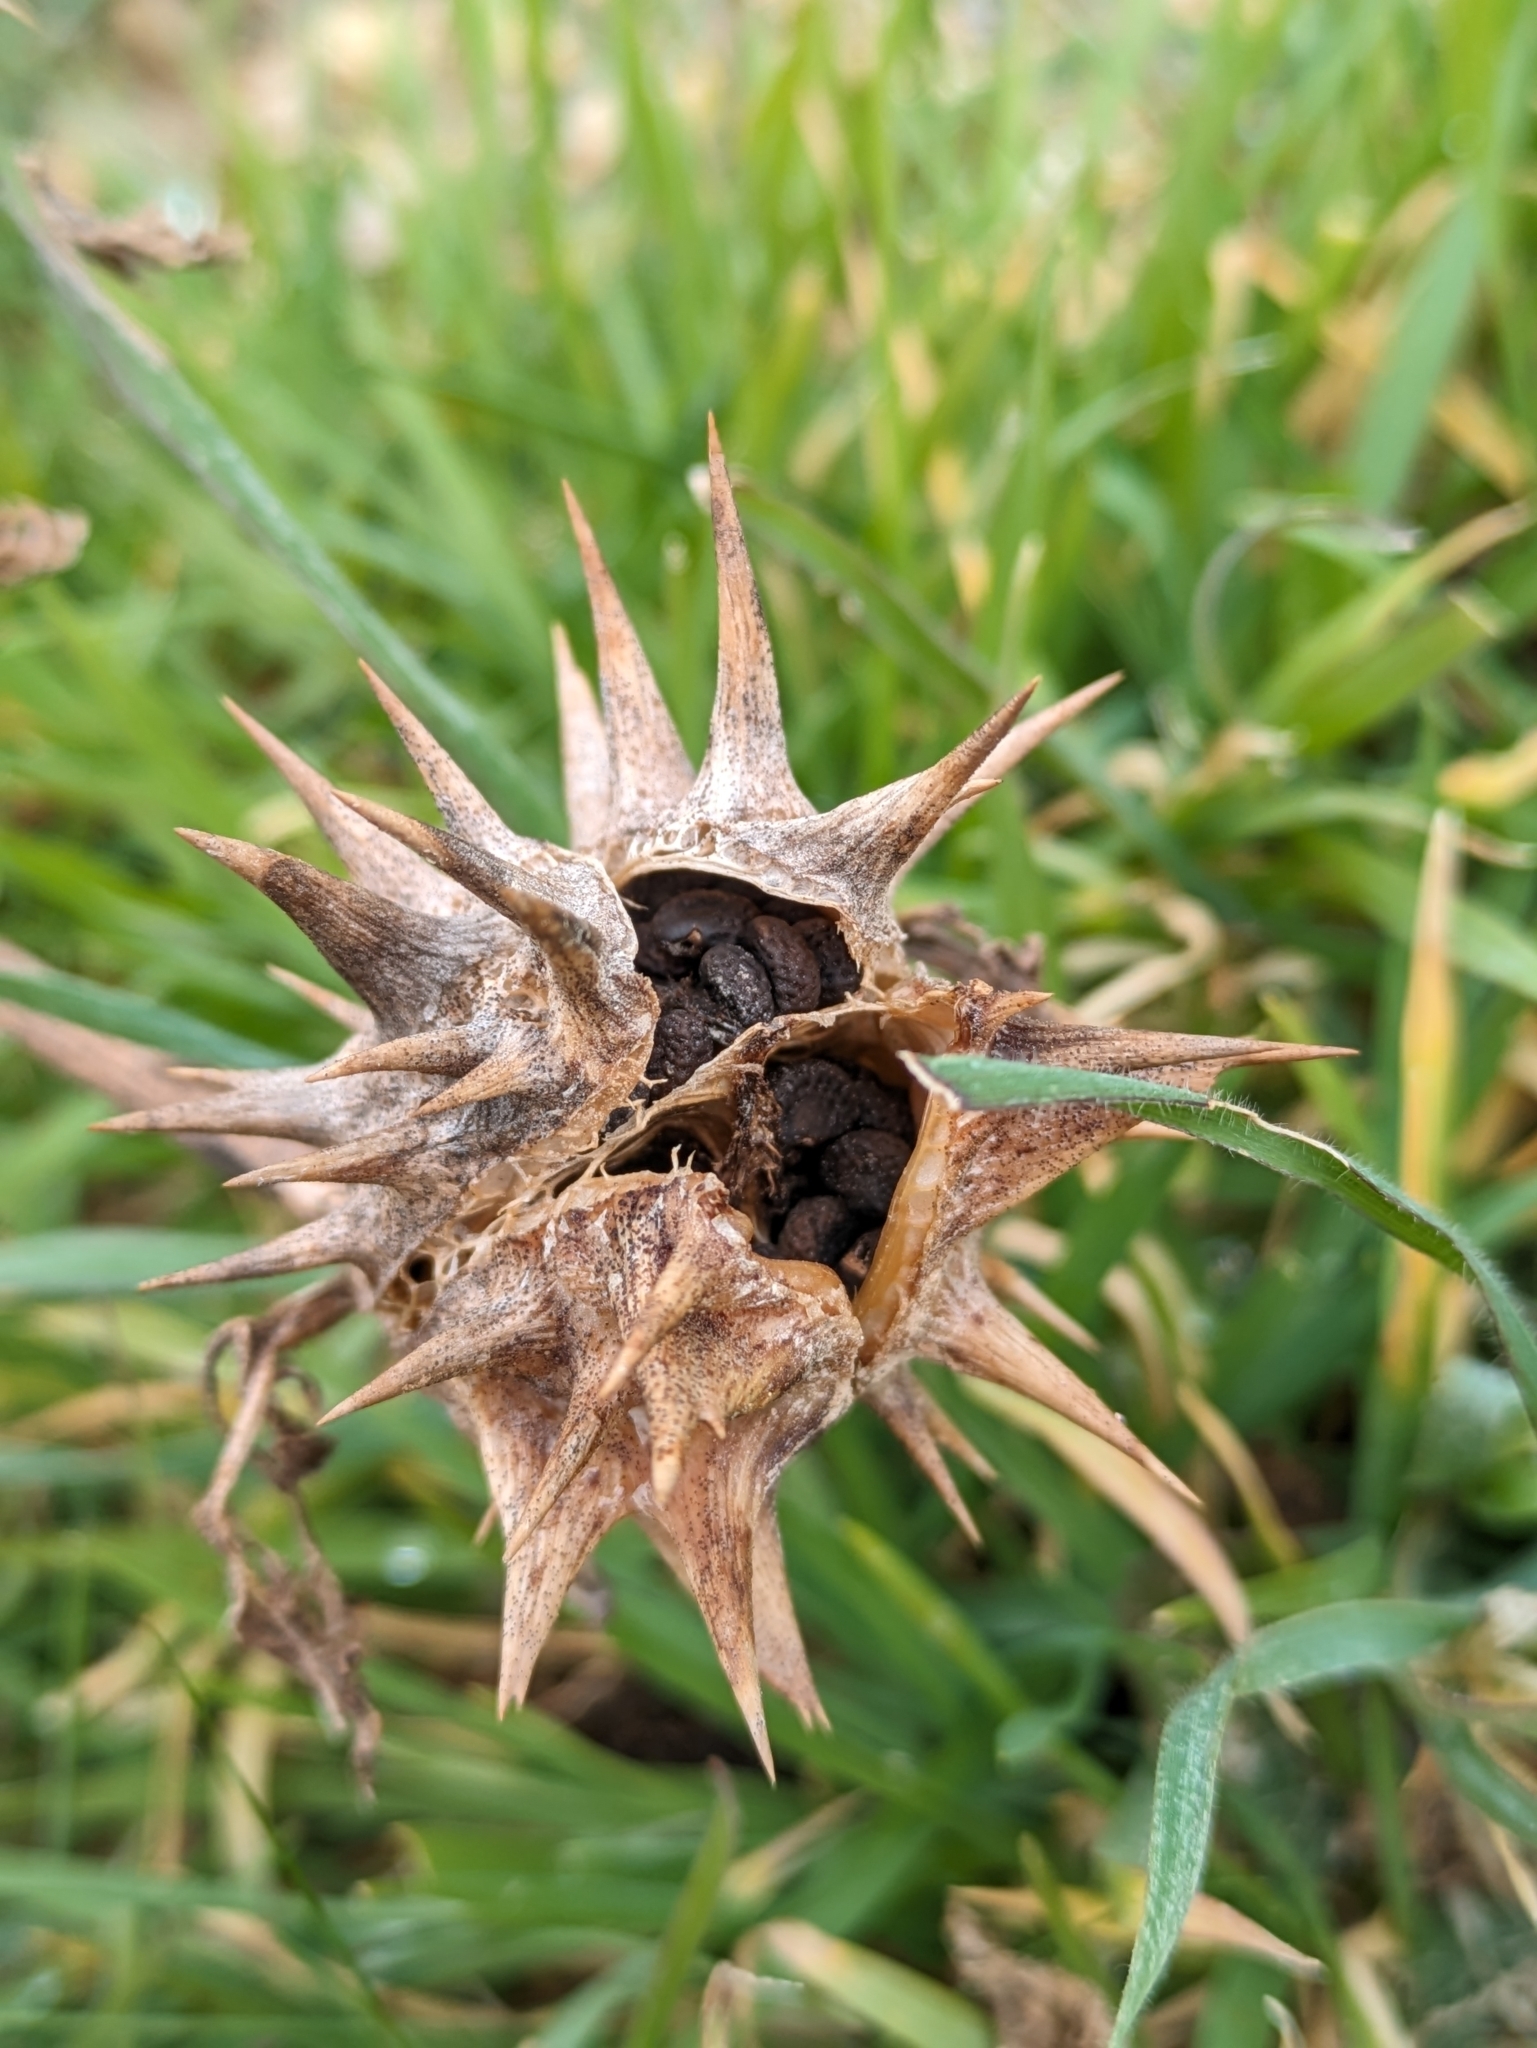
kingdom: Plantae
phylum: Tracheophyta
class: Magnoliopsida
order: Solanales
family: Solanaceae
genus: Datura
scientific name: Datura ferox
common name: Angel's-trumpets
